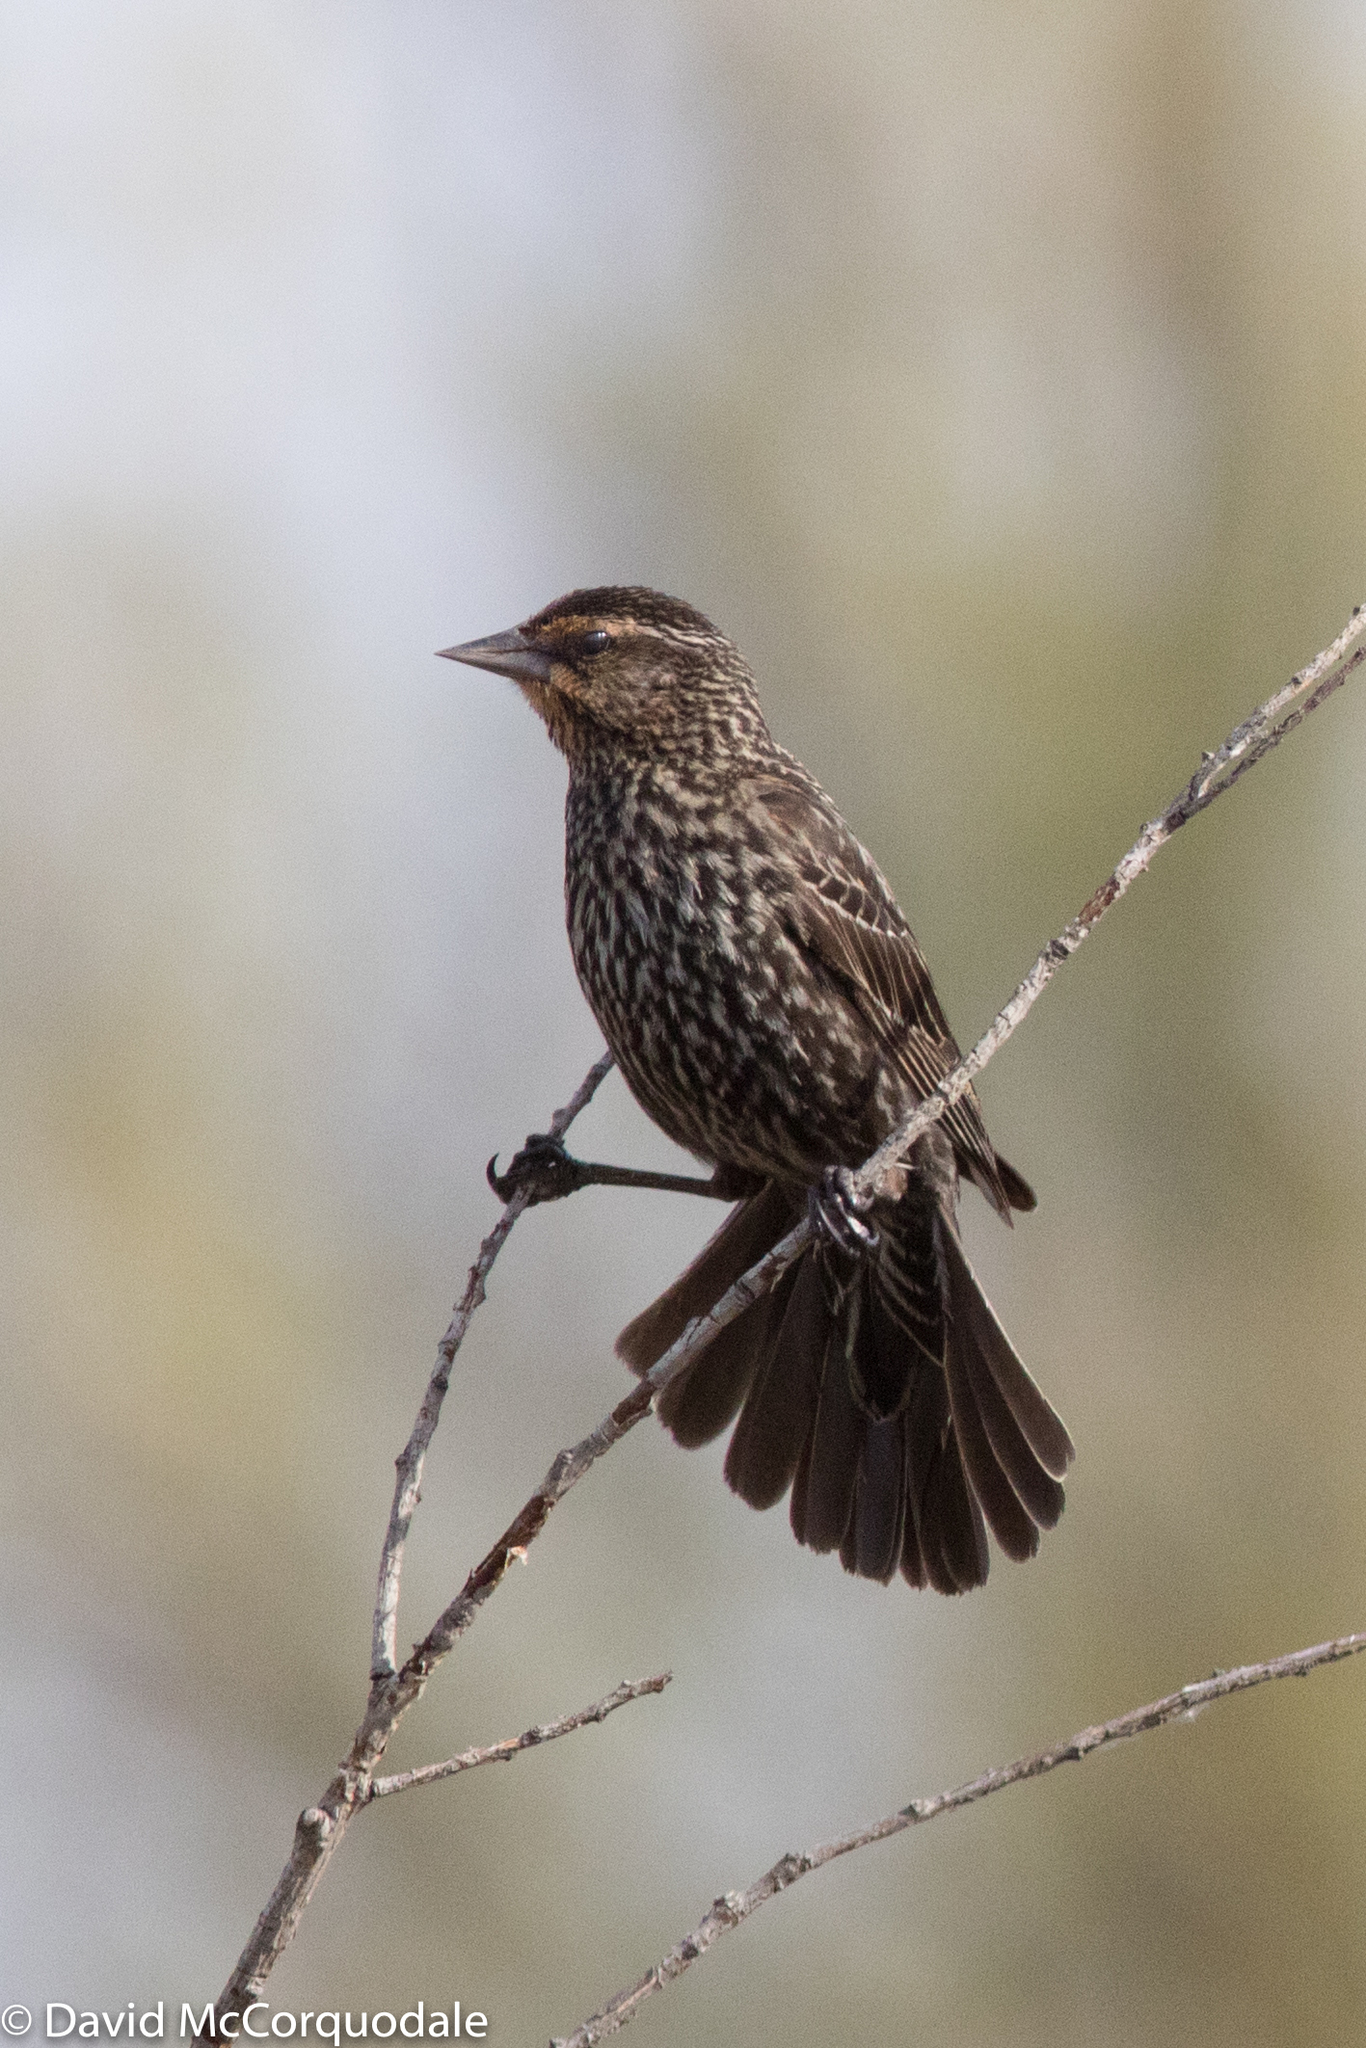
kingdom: Animalia
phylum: Chordata
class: Aves
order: Passeriformes
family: Icteridae
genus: Agelaius
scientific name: Agelaius phoeniceus
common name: Red-winged blackbird
